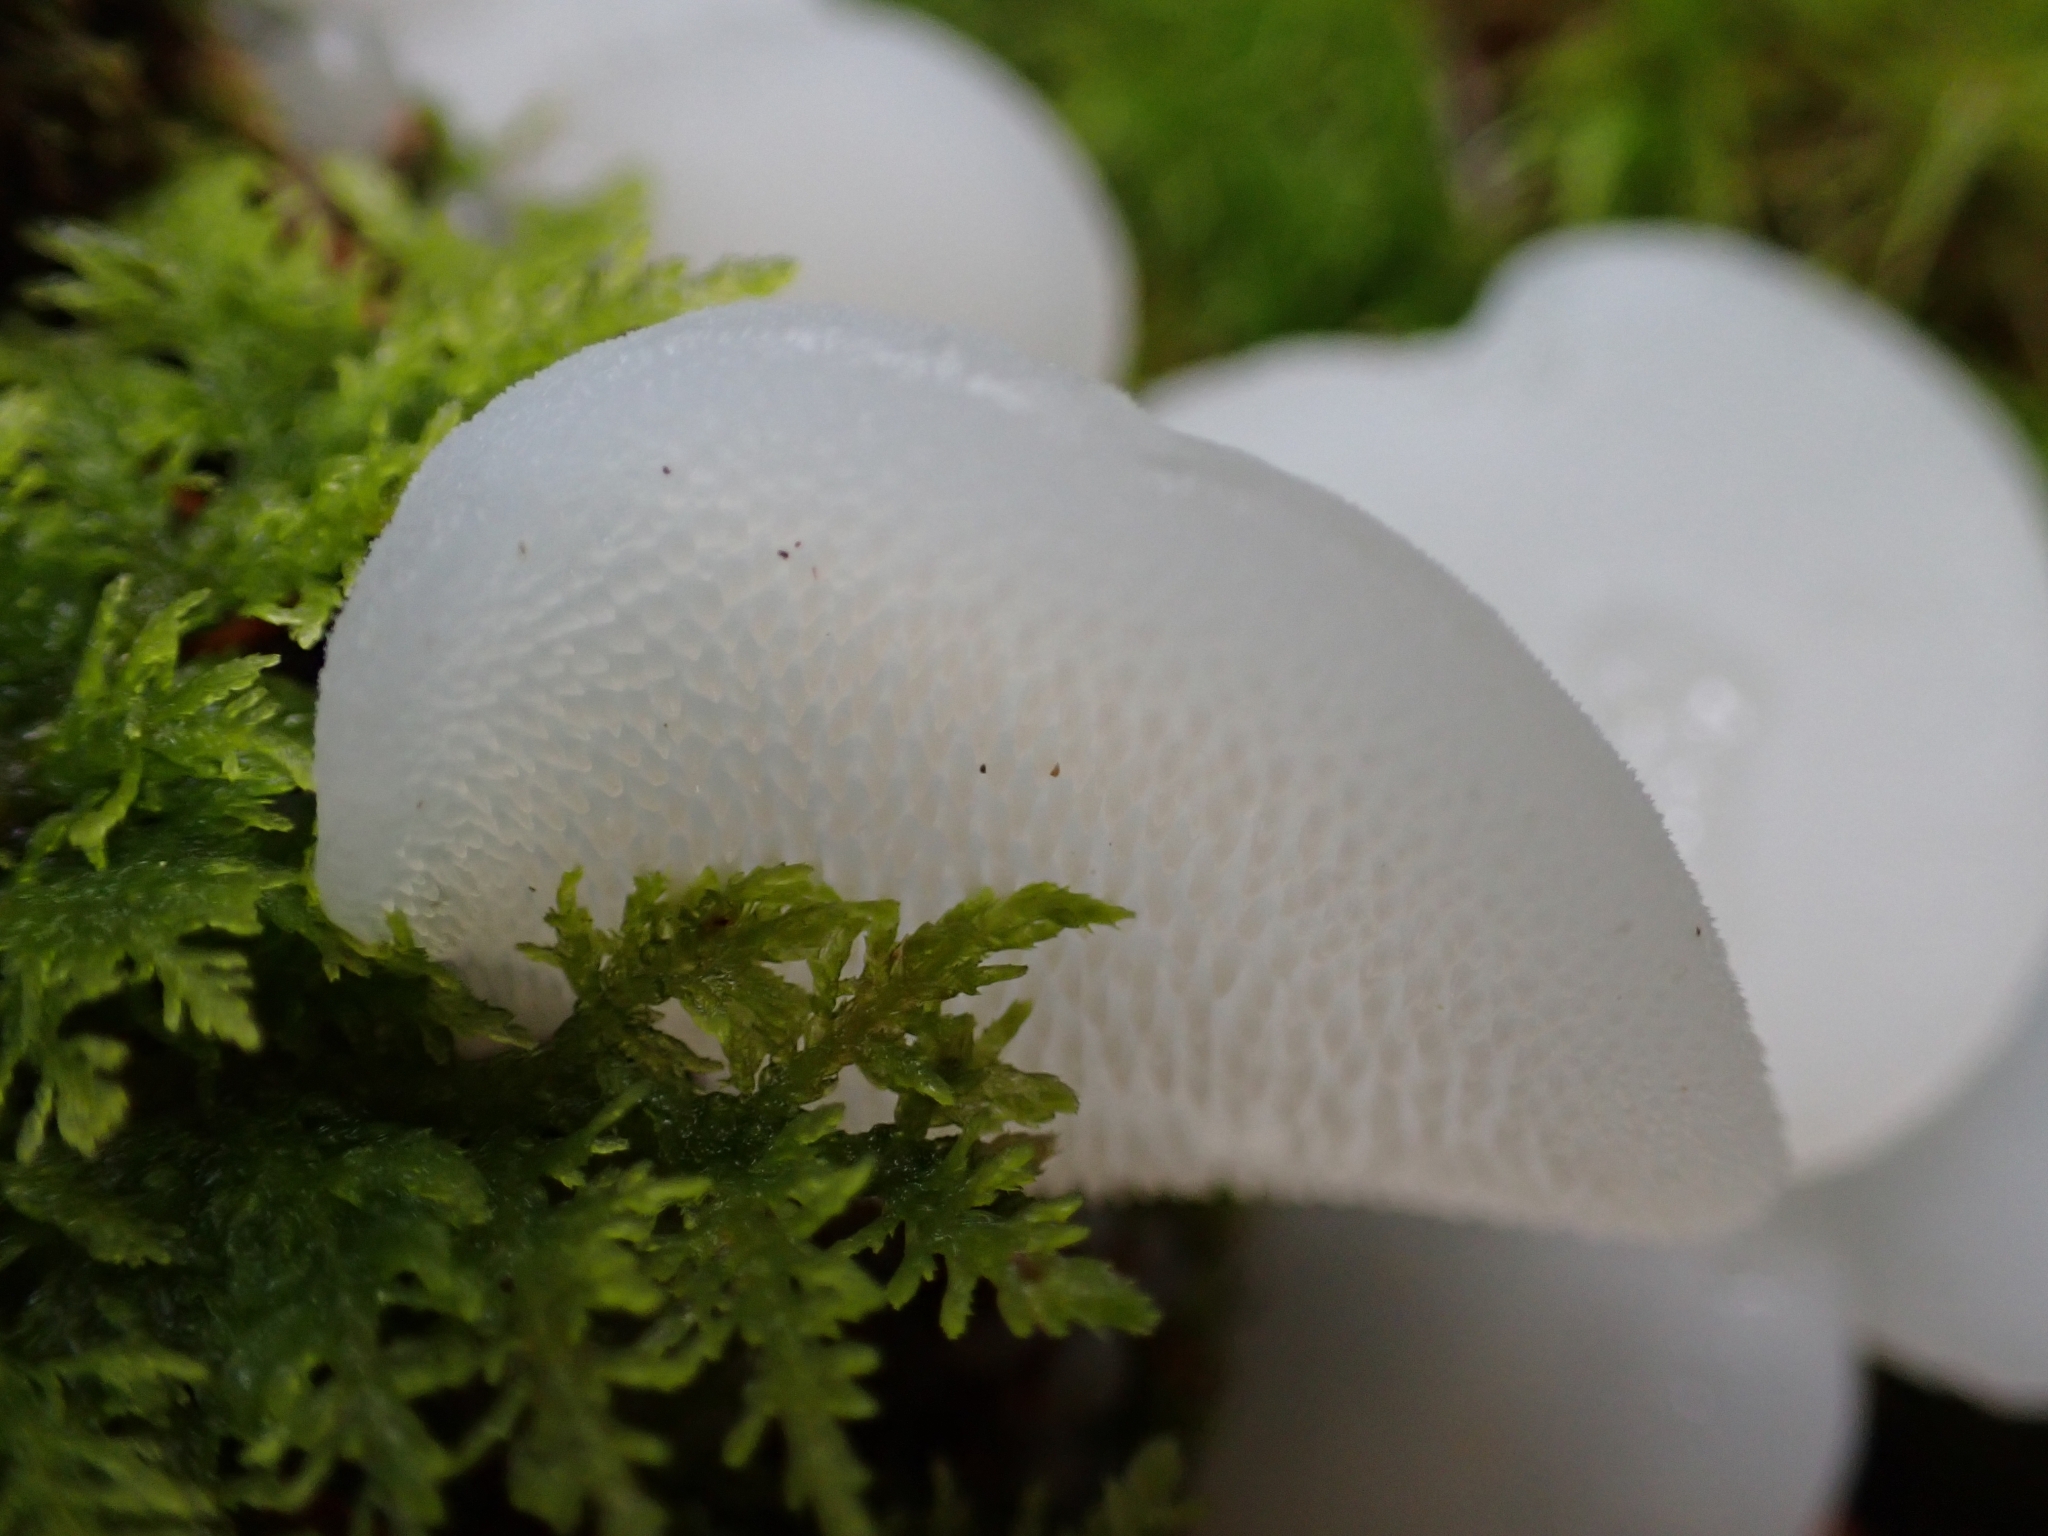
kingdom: Fungi
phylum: Basidiomycota
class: Agaricomycetes
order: Auriculariales
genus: Pseudohydnum
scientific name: Pseudohydnum gelatinosum
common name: Jelly tongue
